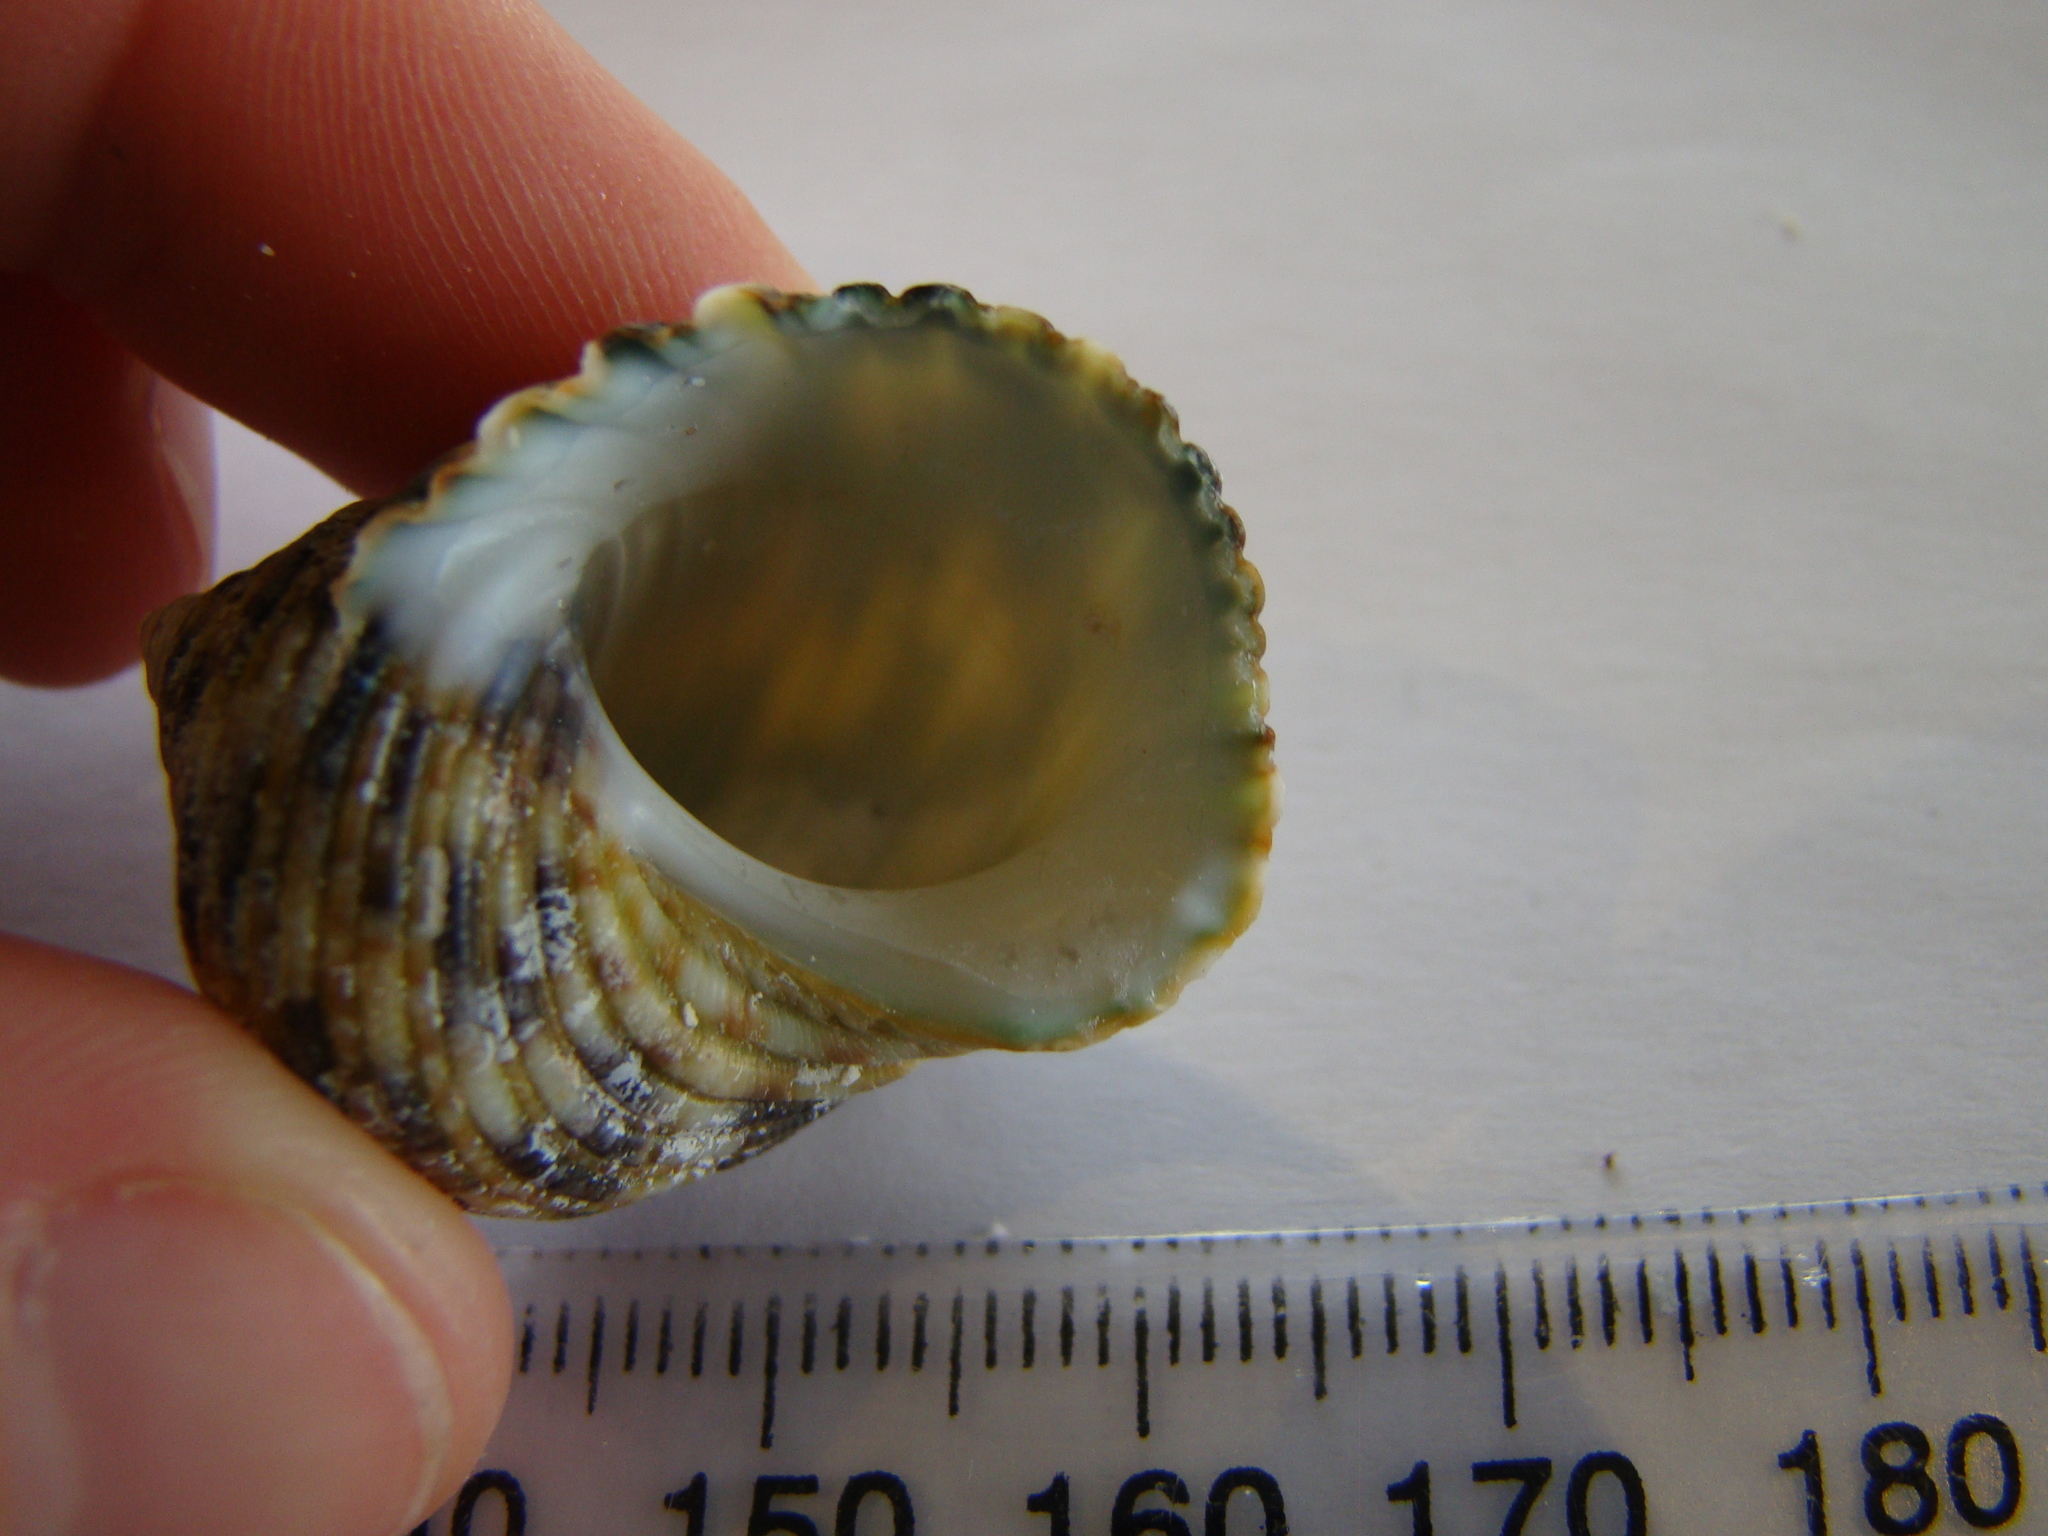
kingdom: Animalia
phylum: Mollusca
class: Gastropoda
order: Trochida
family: Turbinidae
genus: Turbo
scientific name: Turbo setosus
